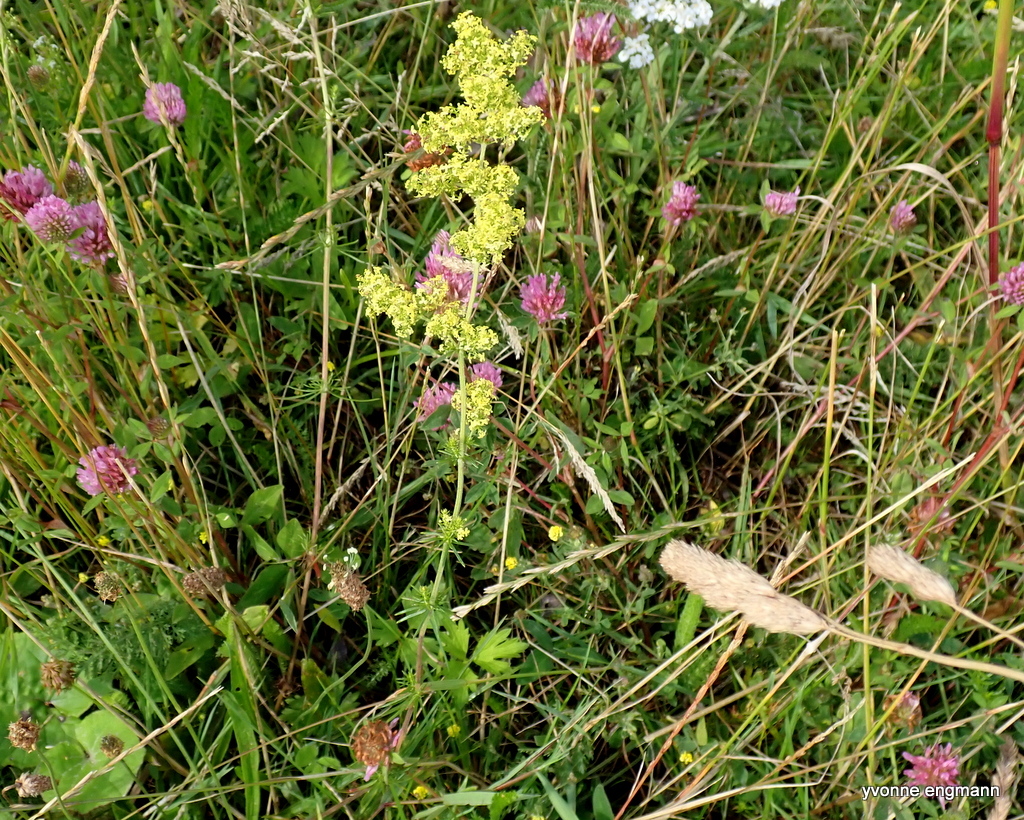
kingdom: Plantae
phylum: Tracheophyta
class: Magnoliopsida
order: Gentianales
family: Rubiaceae
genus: Galium
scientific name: Galium verum
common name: Lady's bedstraw
